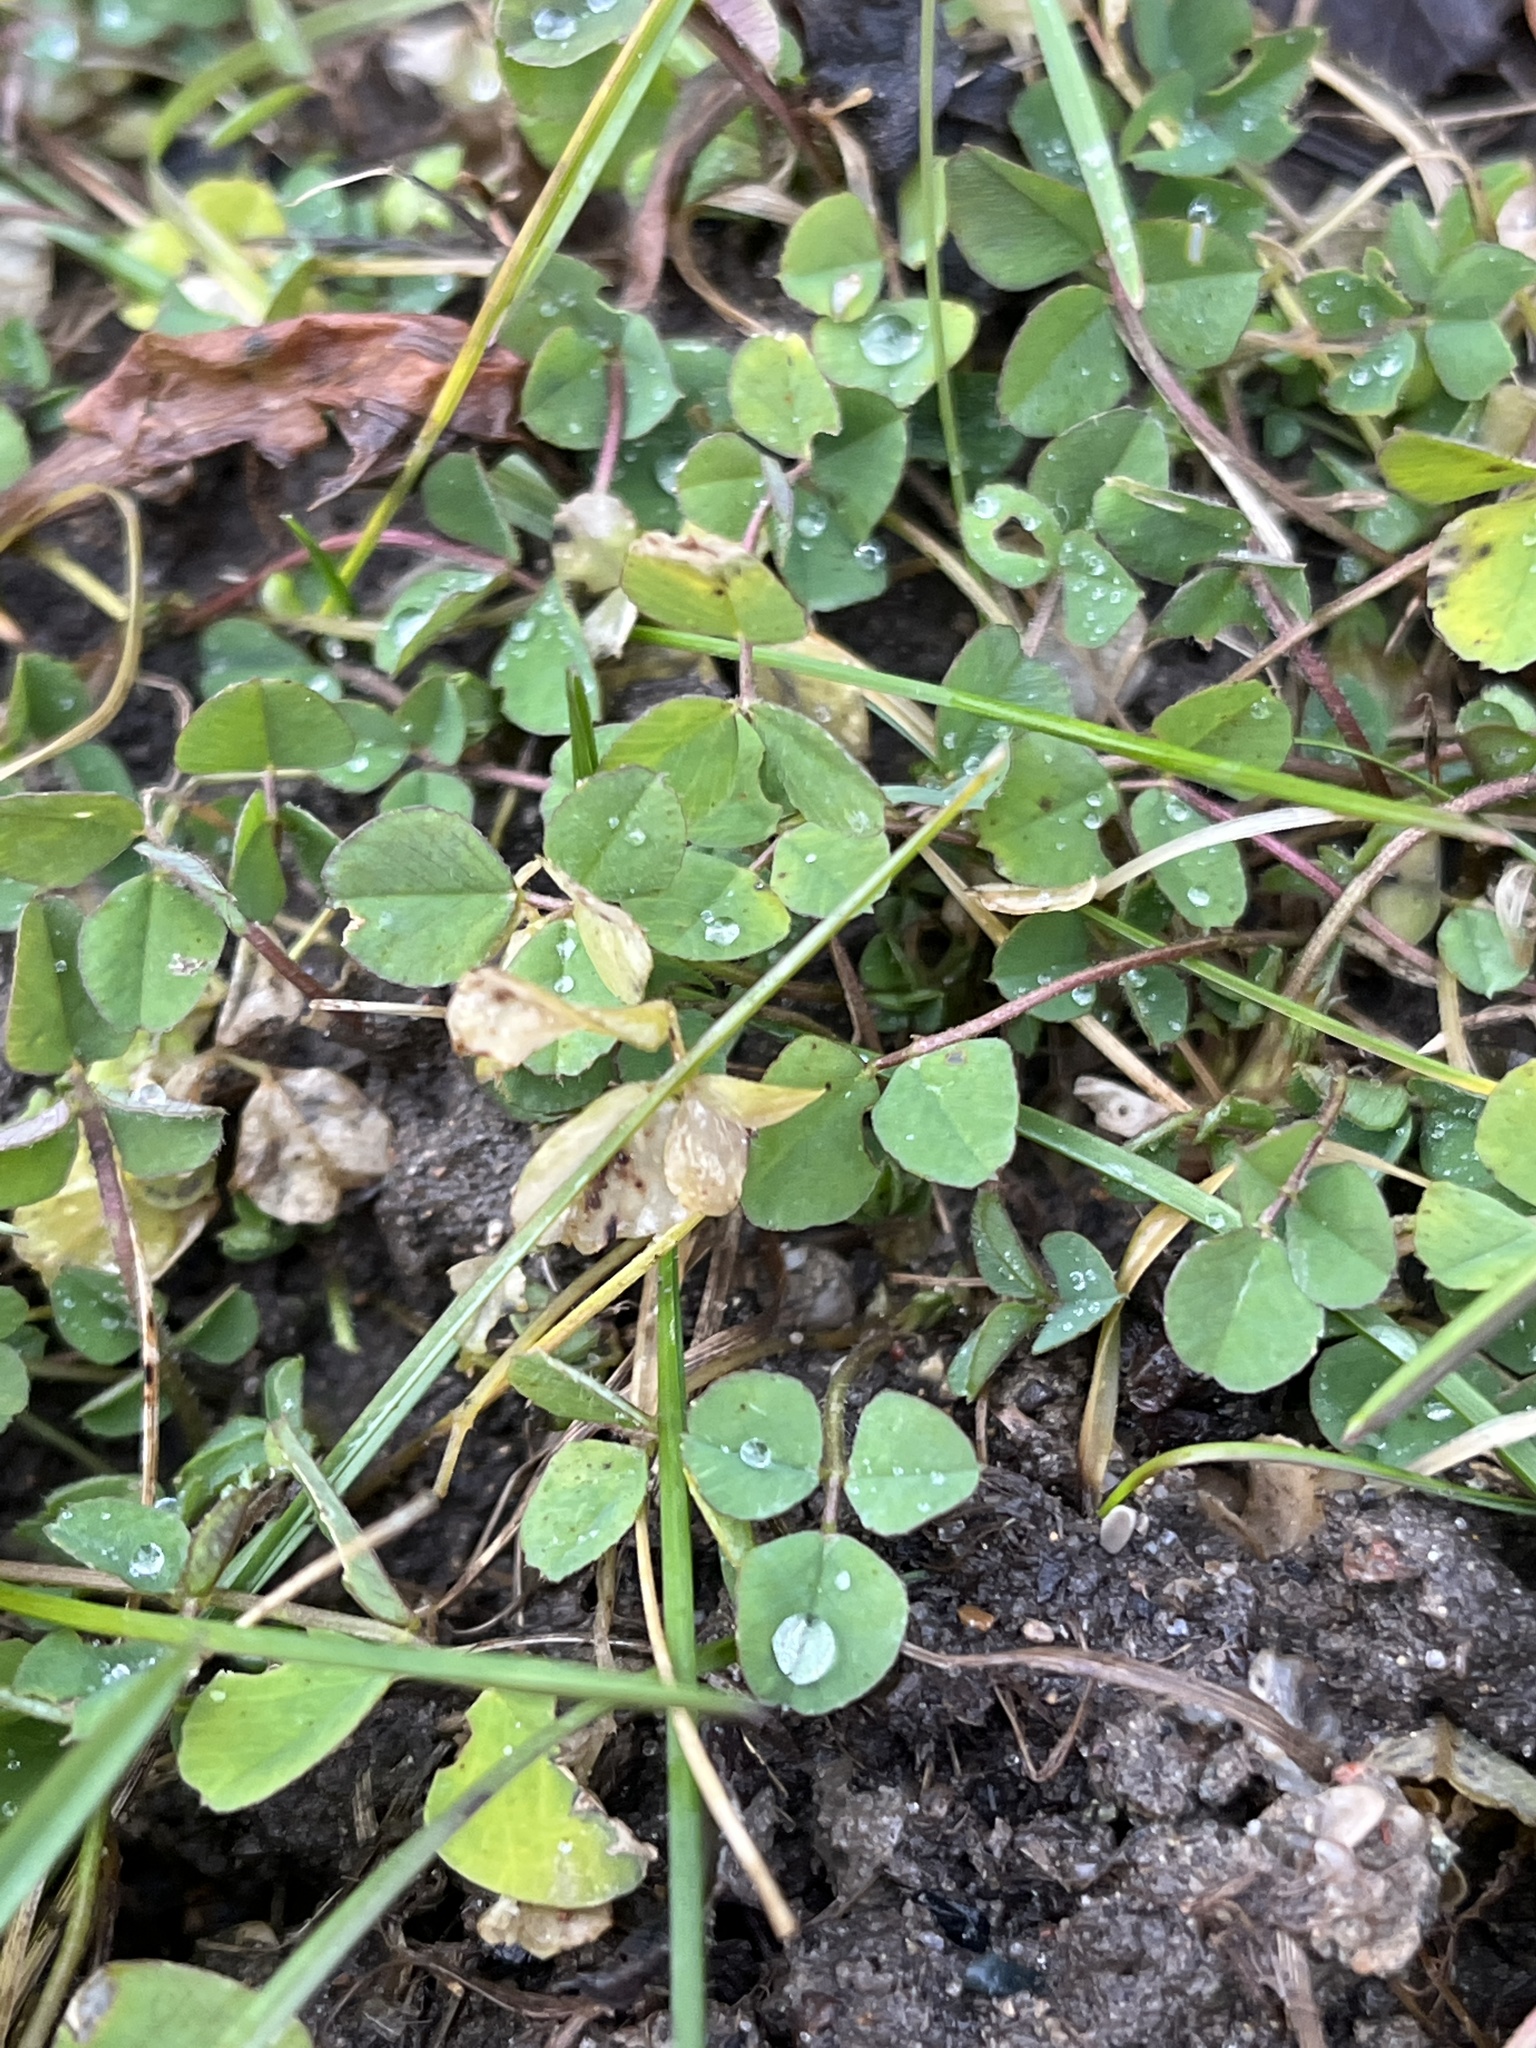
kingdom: Plantae
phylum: Tracheophyta
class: Magnoliopsida
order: Fabales
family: Fabaceae
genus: Medicago
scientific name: Medicago lupulina
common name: Black medick
